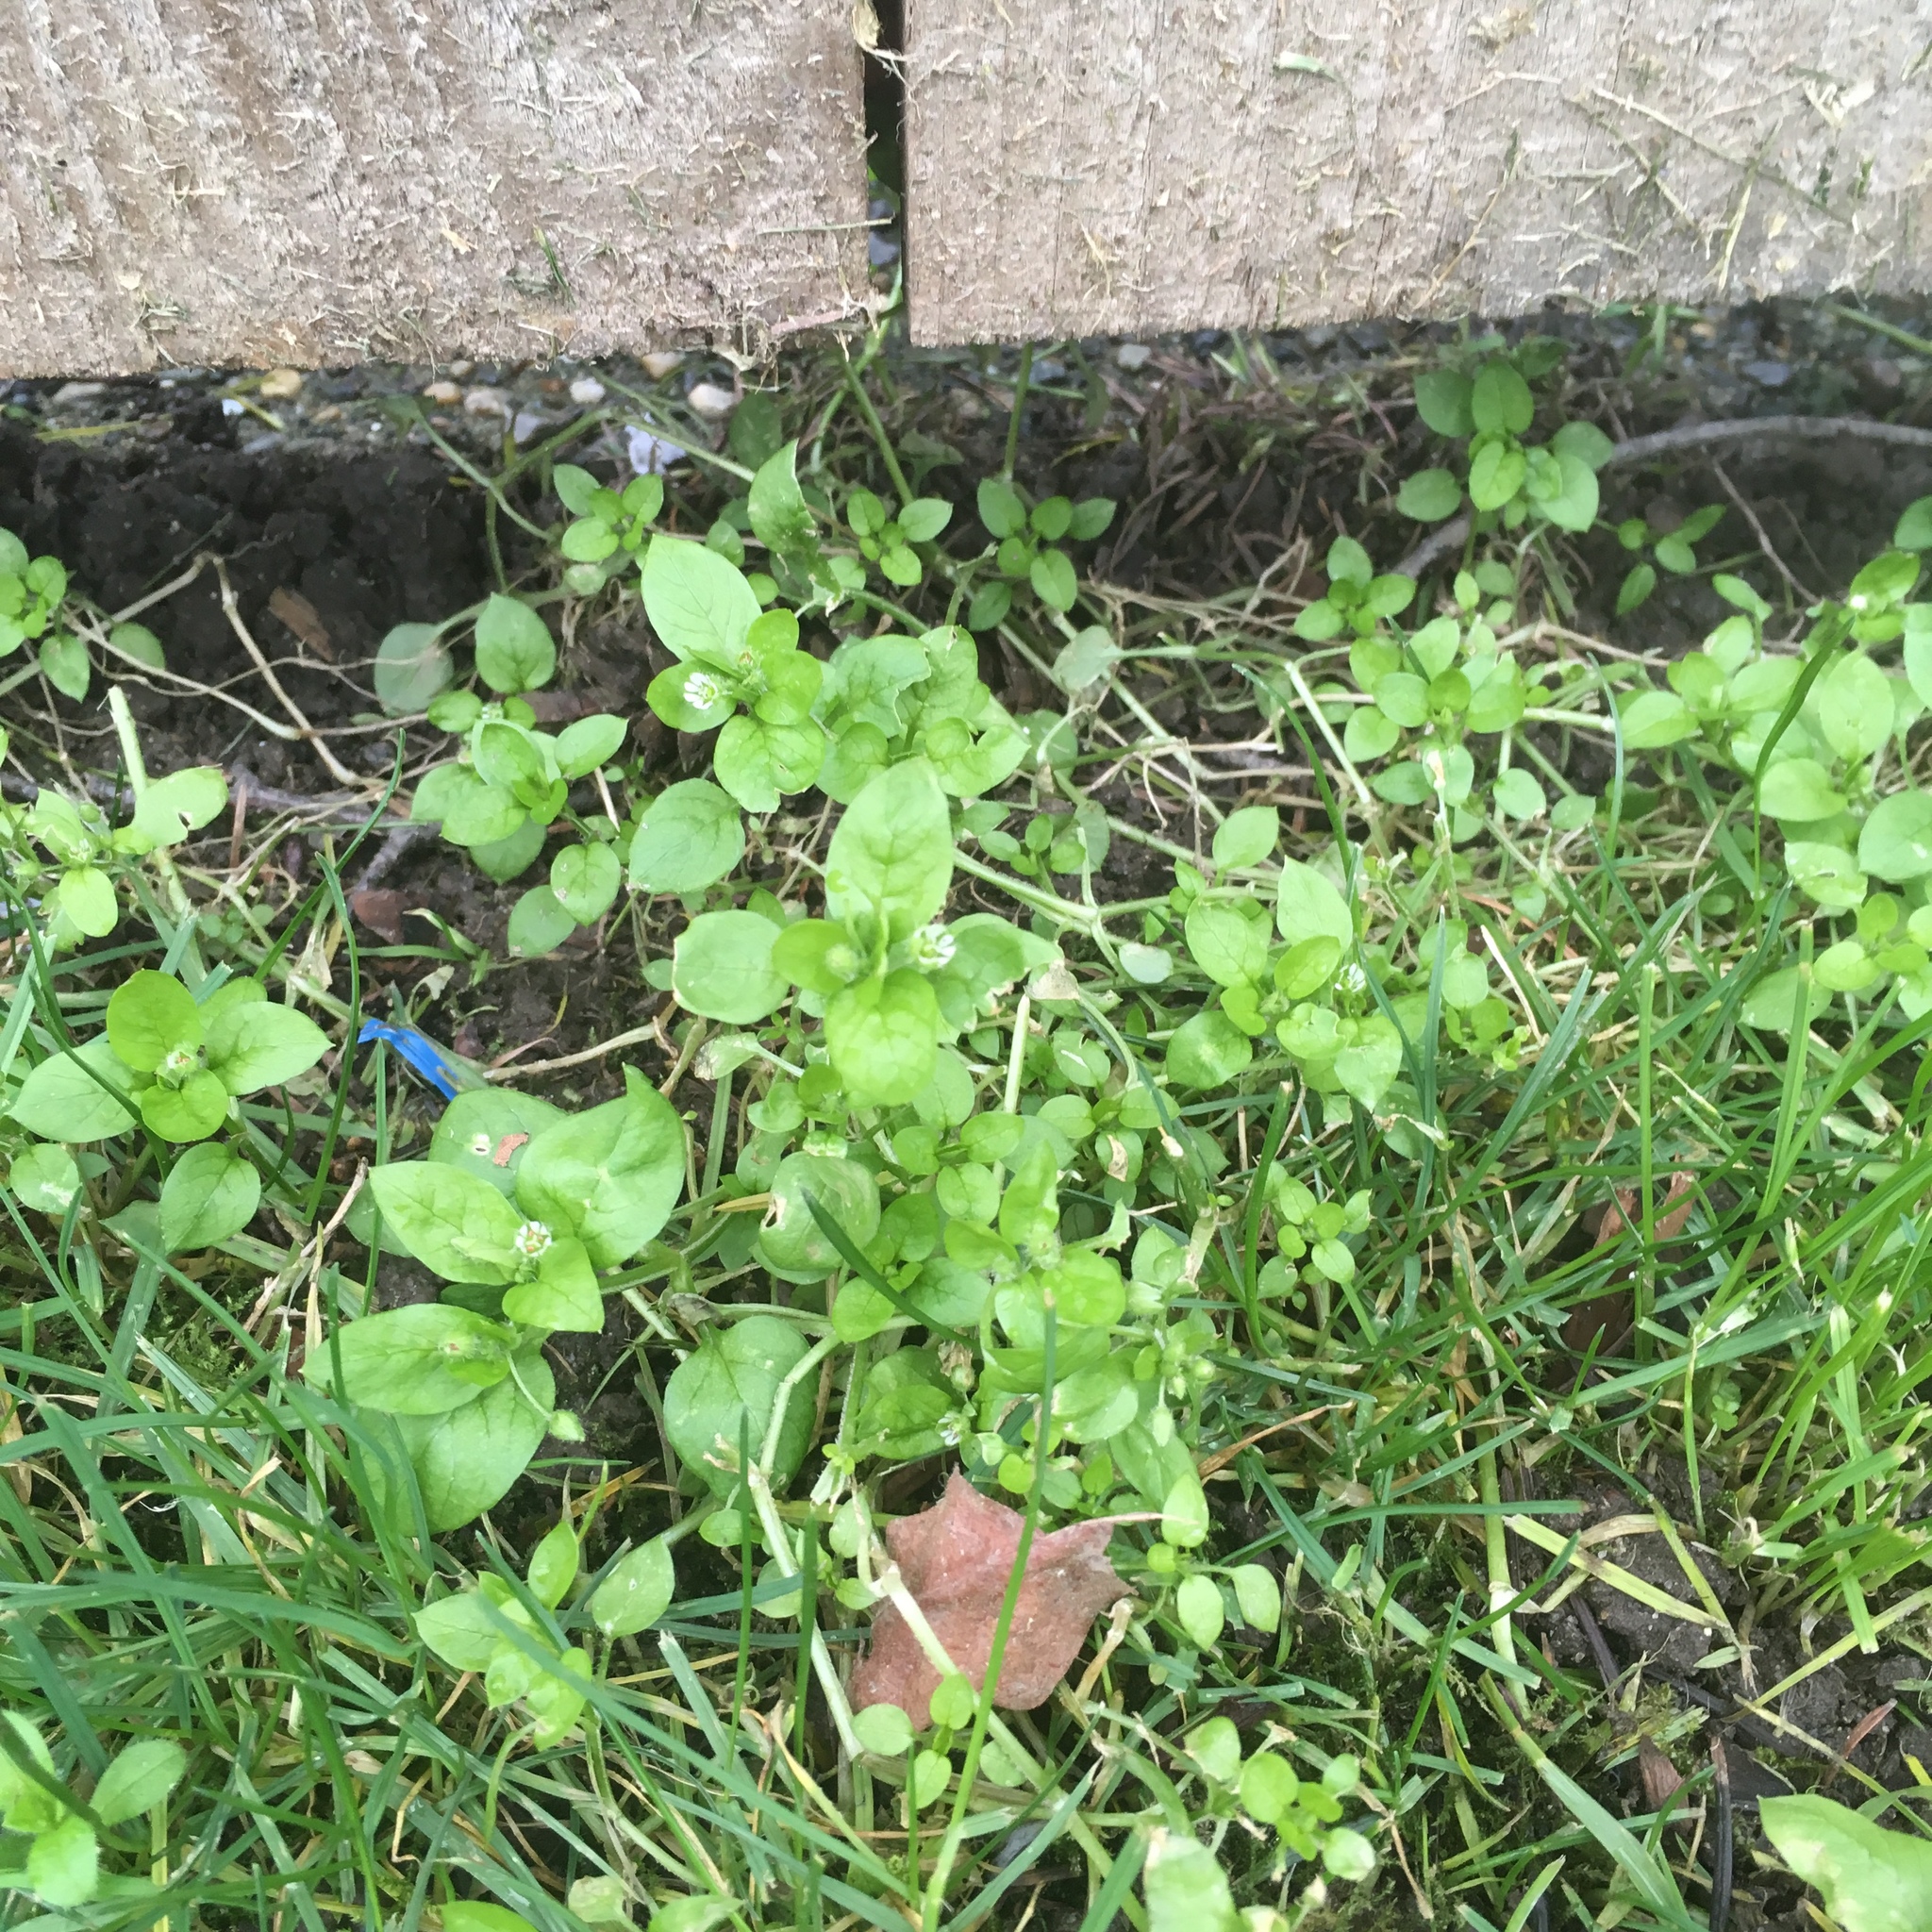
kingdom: Plantae
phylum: Tracheophyta
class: Magnoliopsida
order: Caryophyllales
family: Caryophyllaceae
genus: Stellaria
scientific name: Stellaria media
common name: Common chickweed
